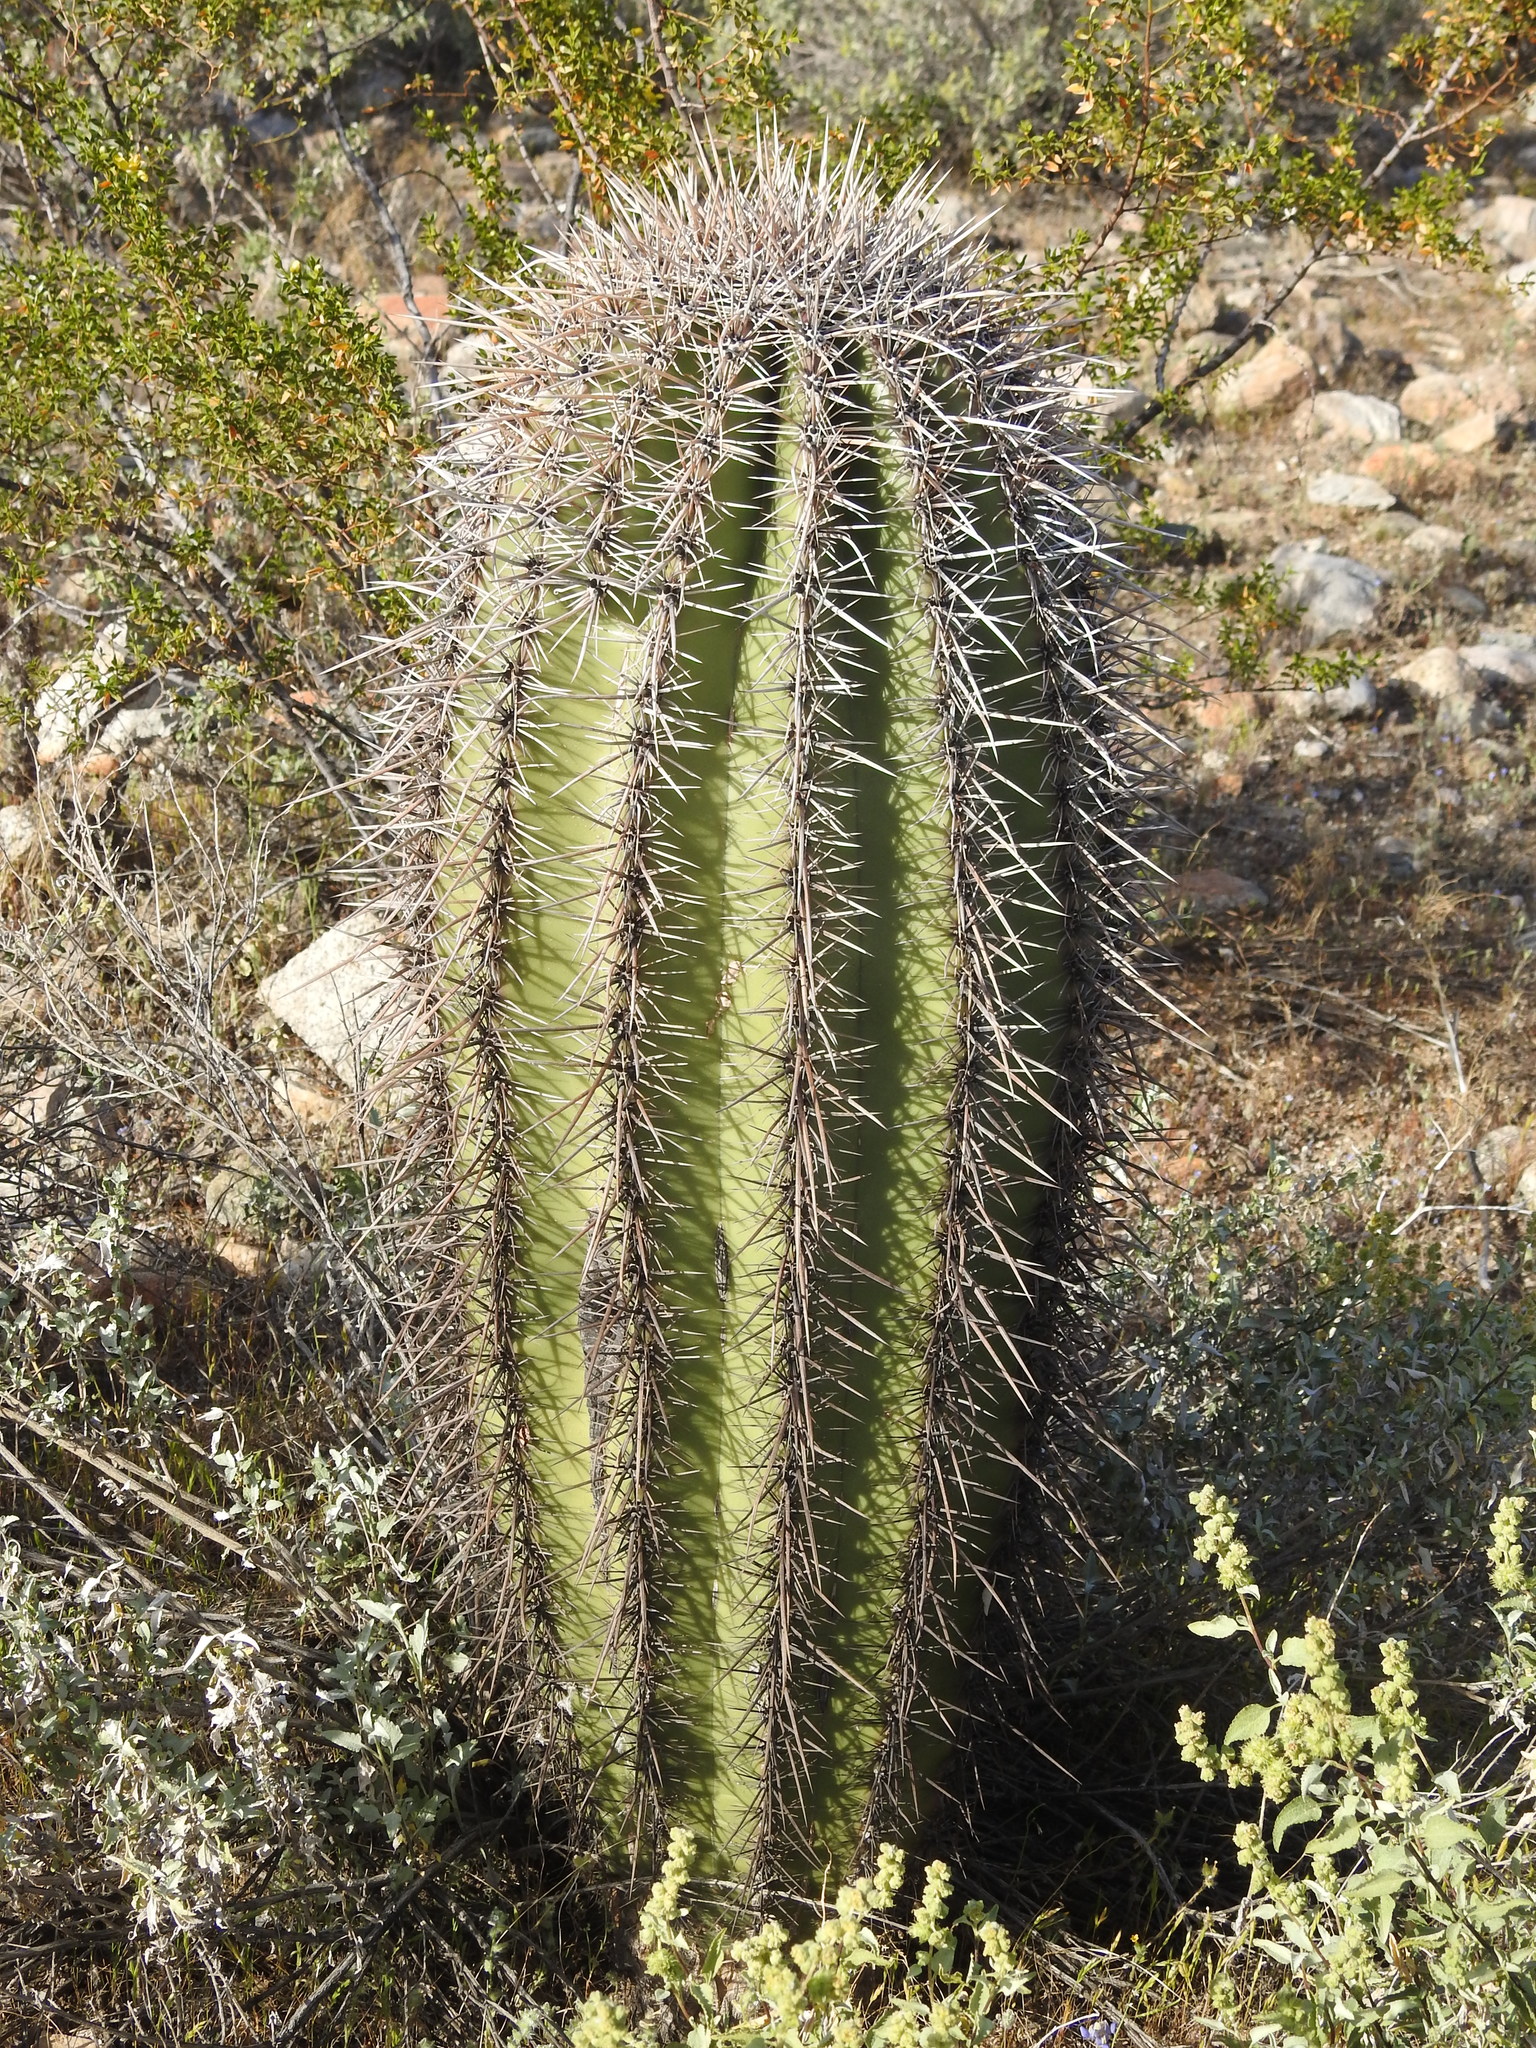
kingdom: Plantae
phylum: Tracheophyta
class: Magnoliopsida
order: Caryophyllales
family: Cactaceae
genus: Carnegiea
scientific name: Carnegiea gigantea
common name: Saguaro
